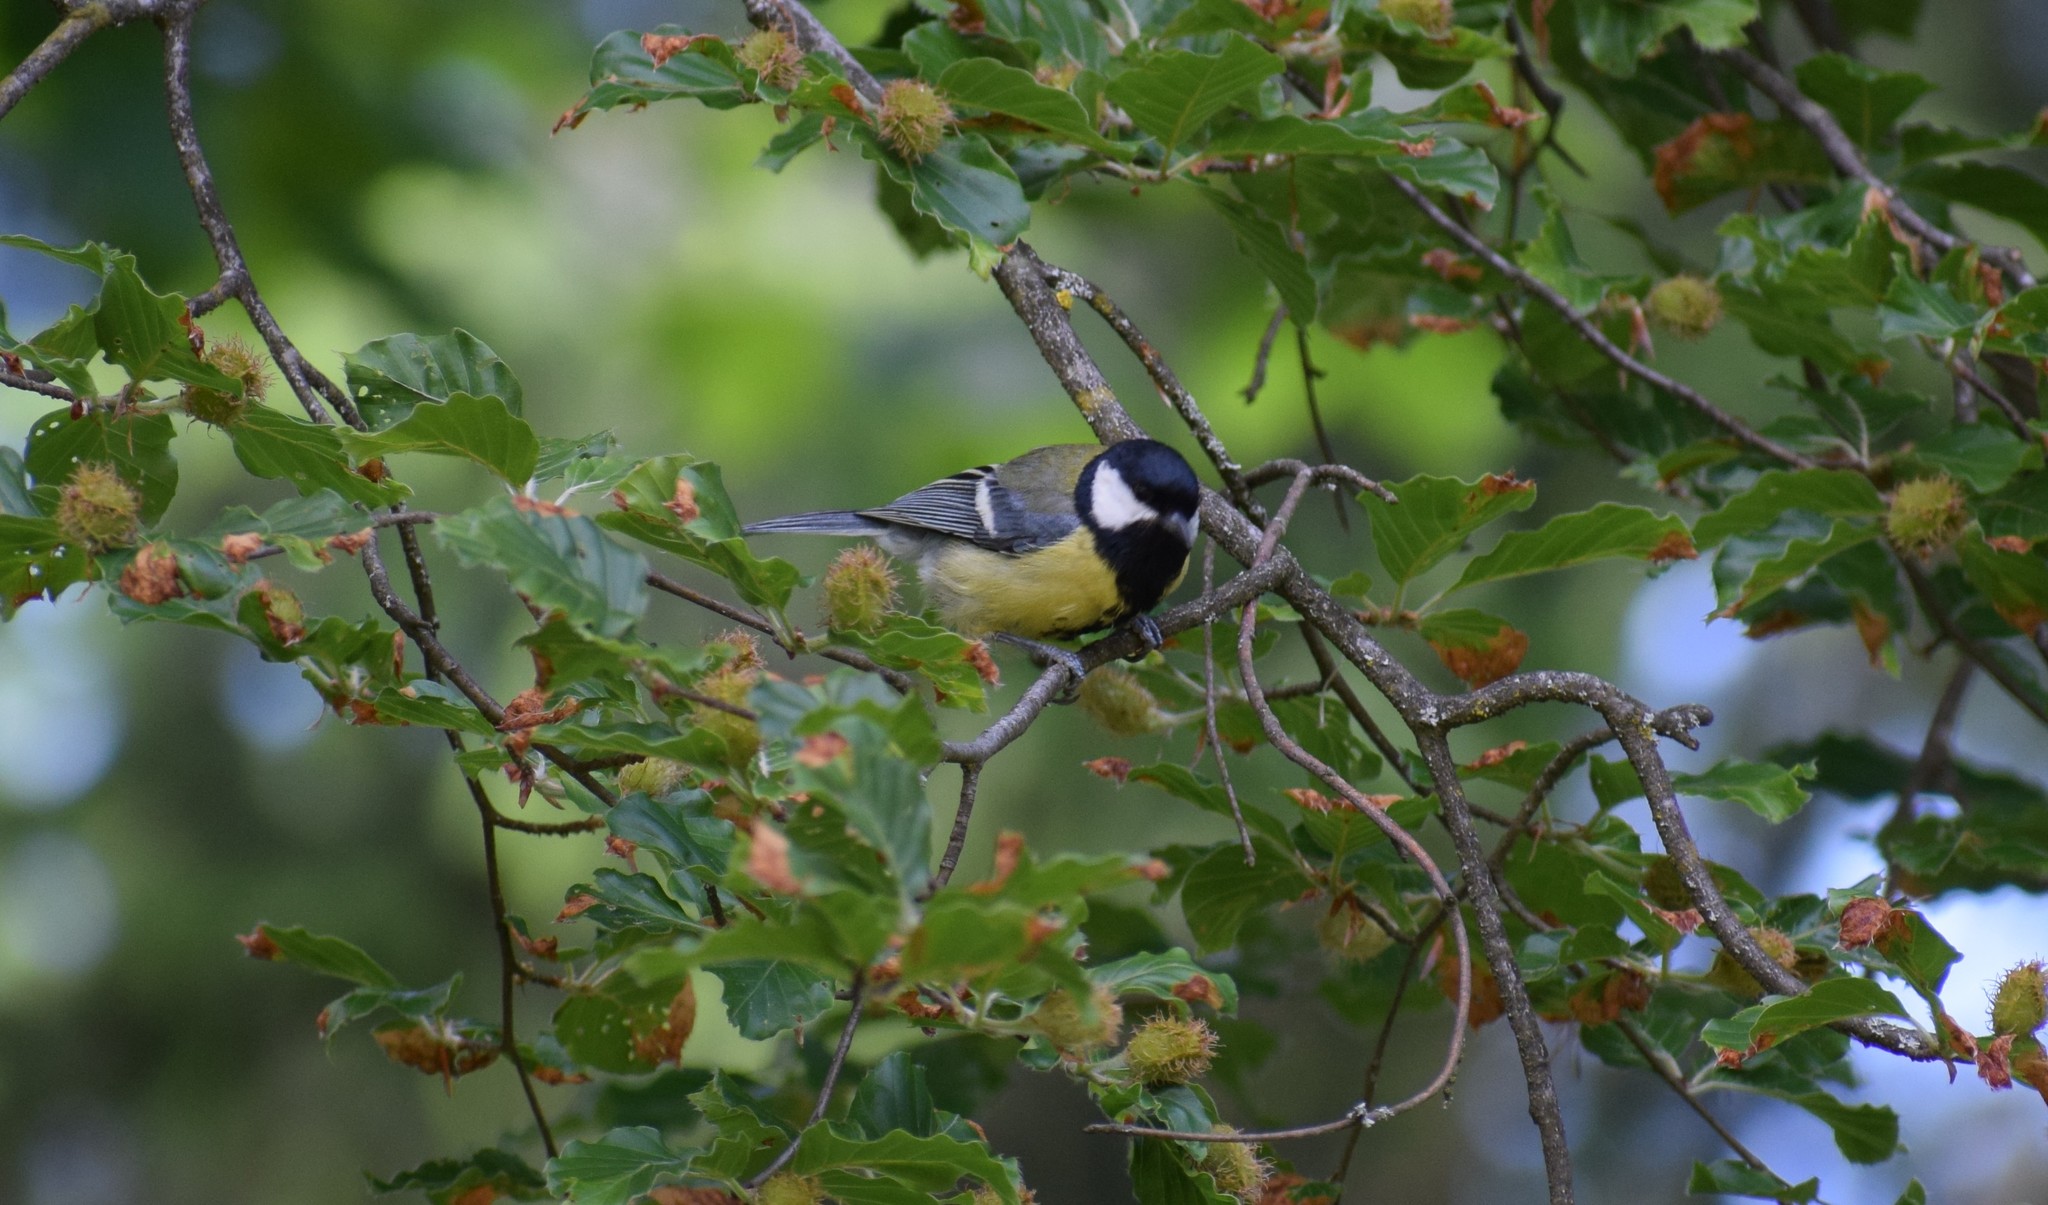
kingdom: Animalia
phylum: Chordata
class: Aves
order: Passeriformes
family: Paridae
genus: Parus
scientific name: Parus major
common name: Great tit
